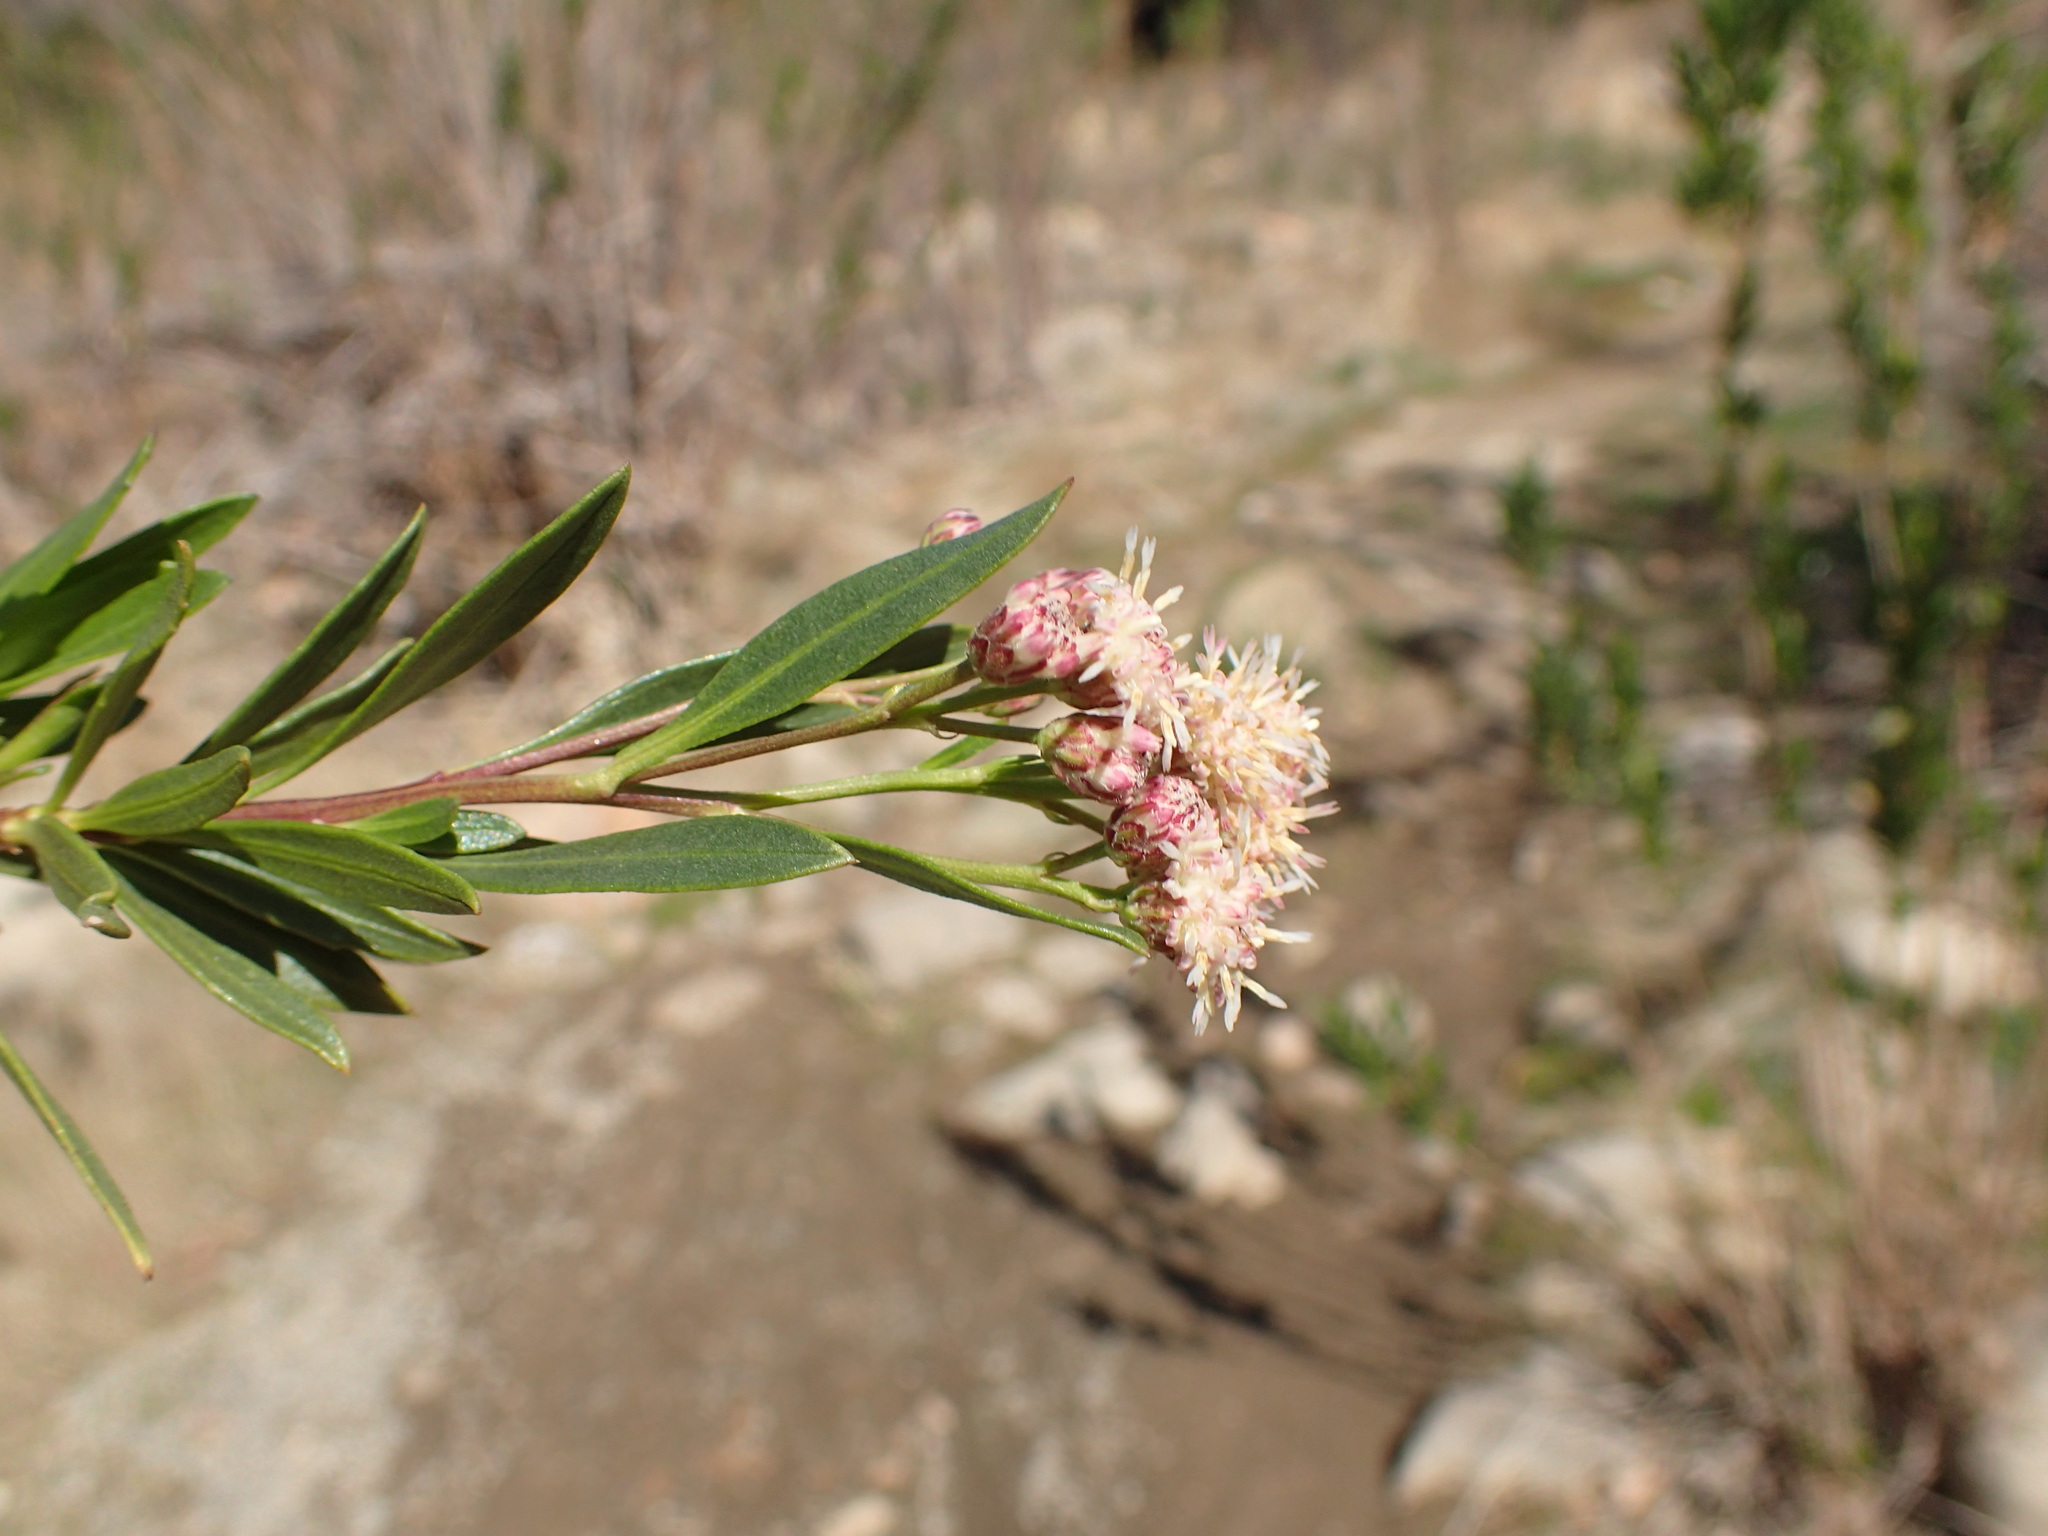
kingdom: Plantae
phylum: Tracheophyta
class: Magnoliopsida
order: Asterales
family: Asteraceae
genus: Baccharis
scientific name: Baccharis salicifolia
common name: Sticky baccharis
